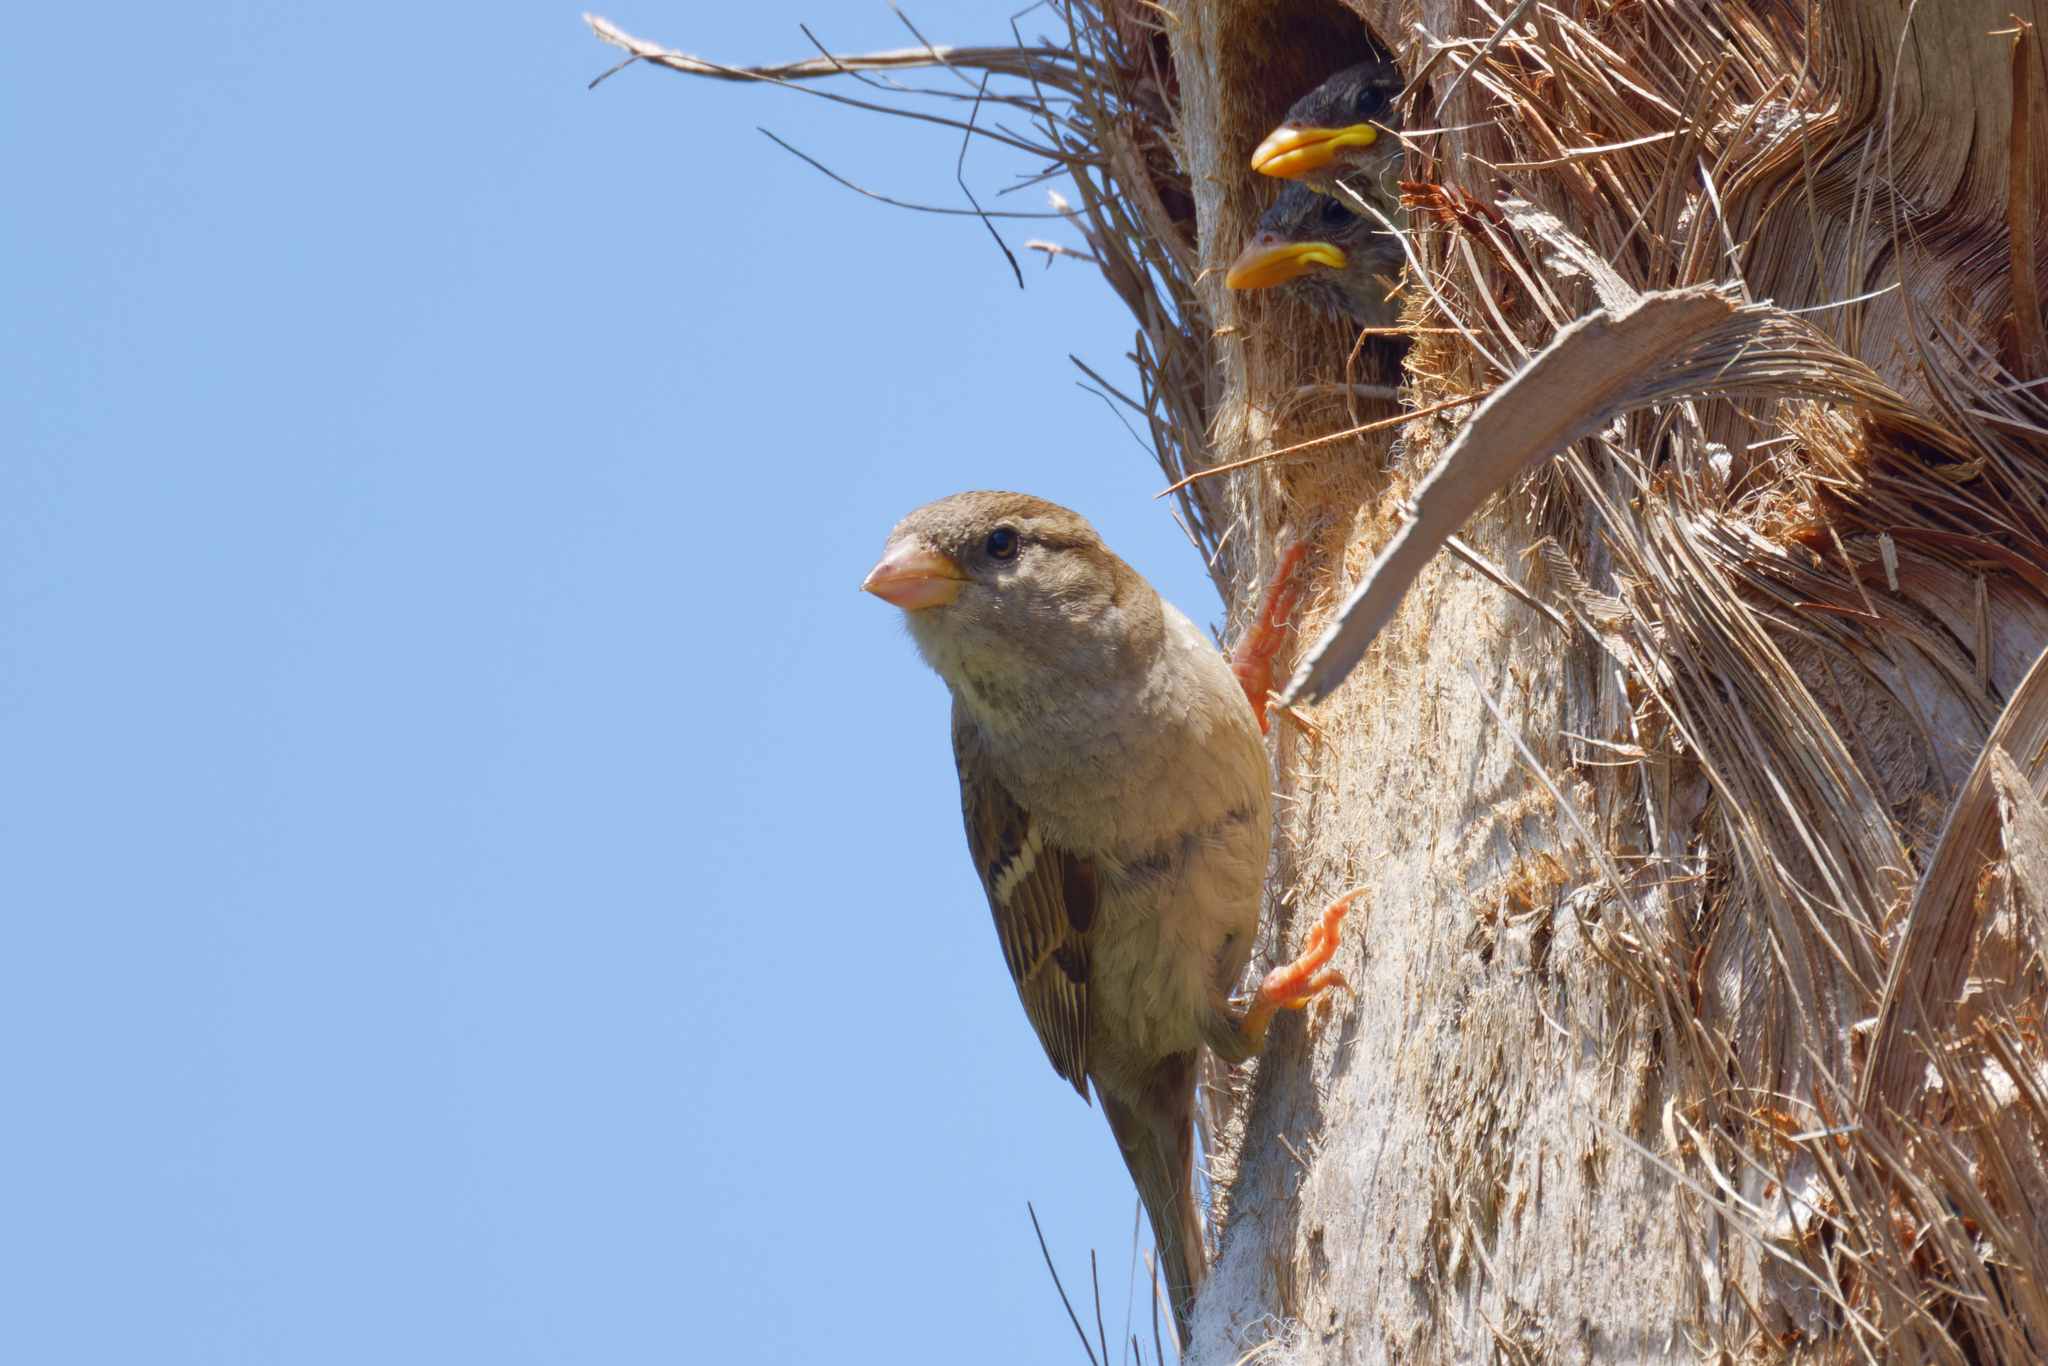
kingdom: Animalia
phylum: Chordata
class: Aves
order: Passeriformes
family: Passeridae
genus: Passer
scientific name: Passer domesticus
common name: House sparrow
